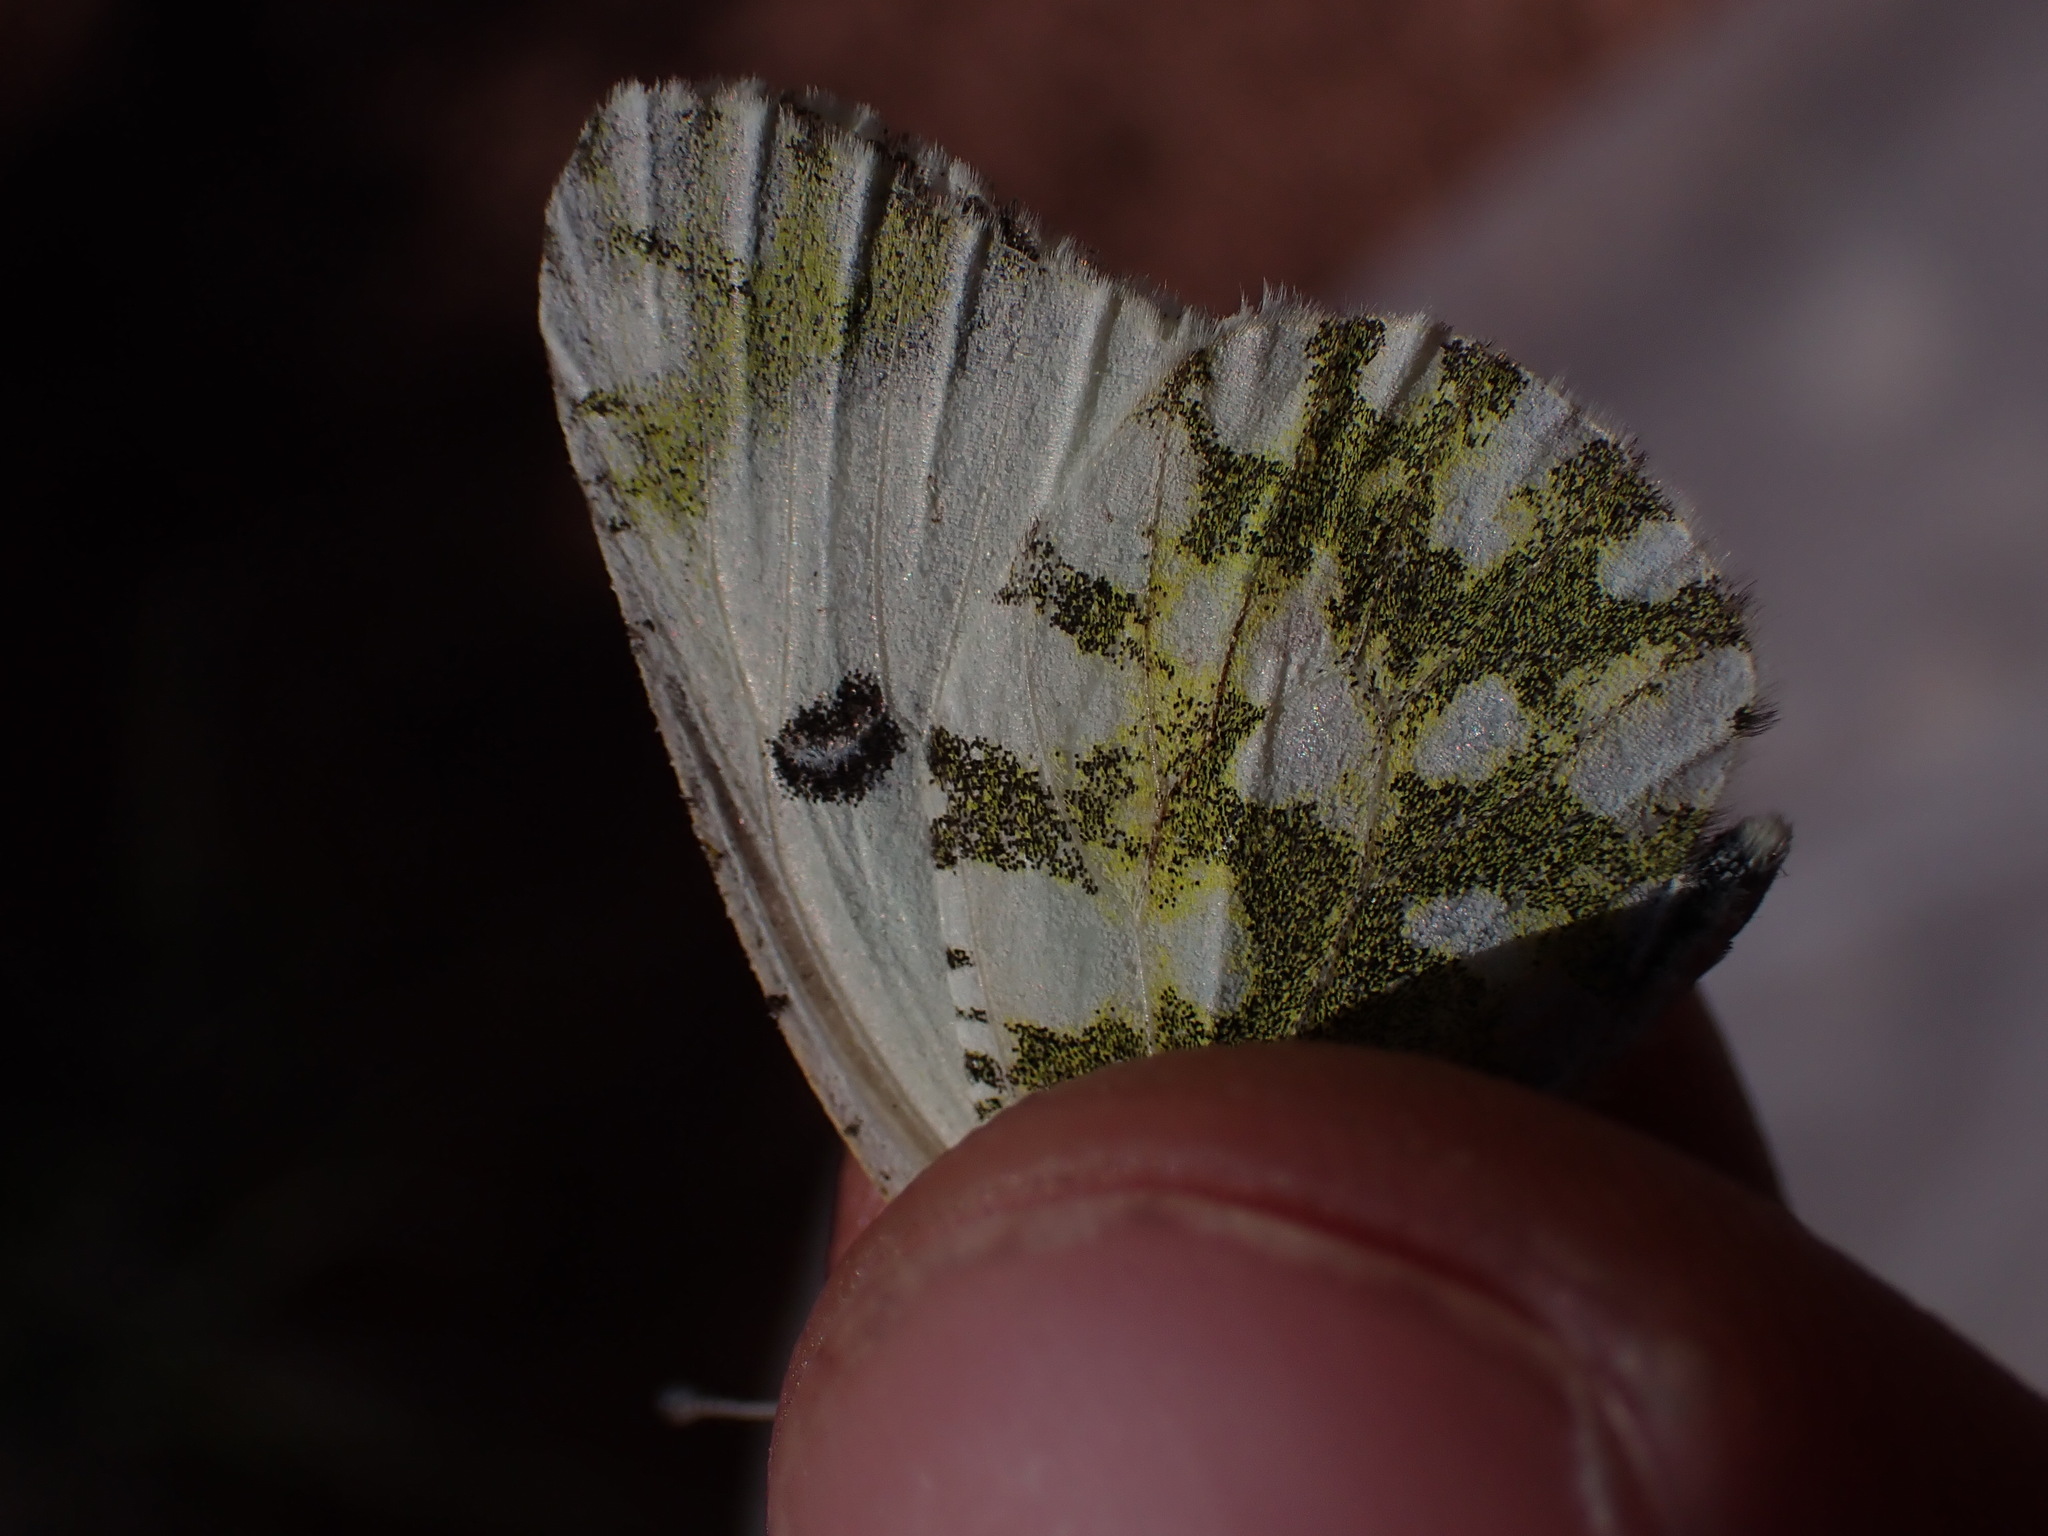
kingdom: Animalia
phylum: Arthropoda
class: Insecta
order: Lepidoptera
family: Pieridae
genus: Euchloe
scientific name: Euchloe crameri
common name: Western dappled white
